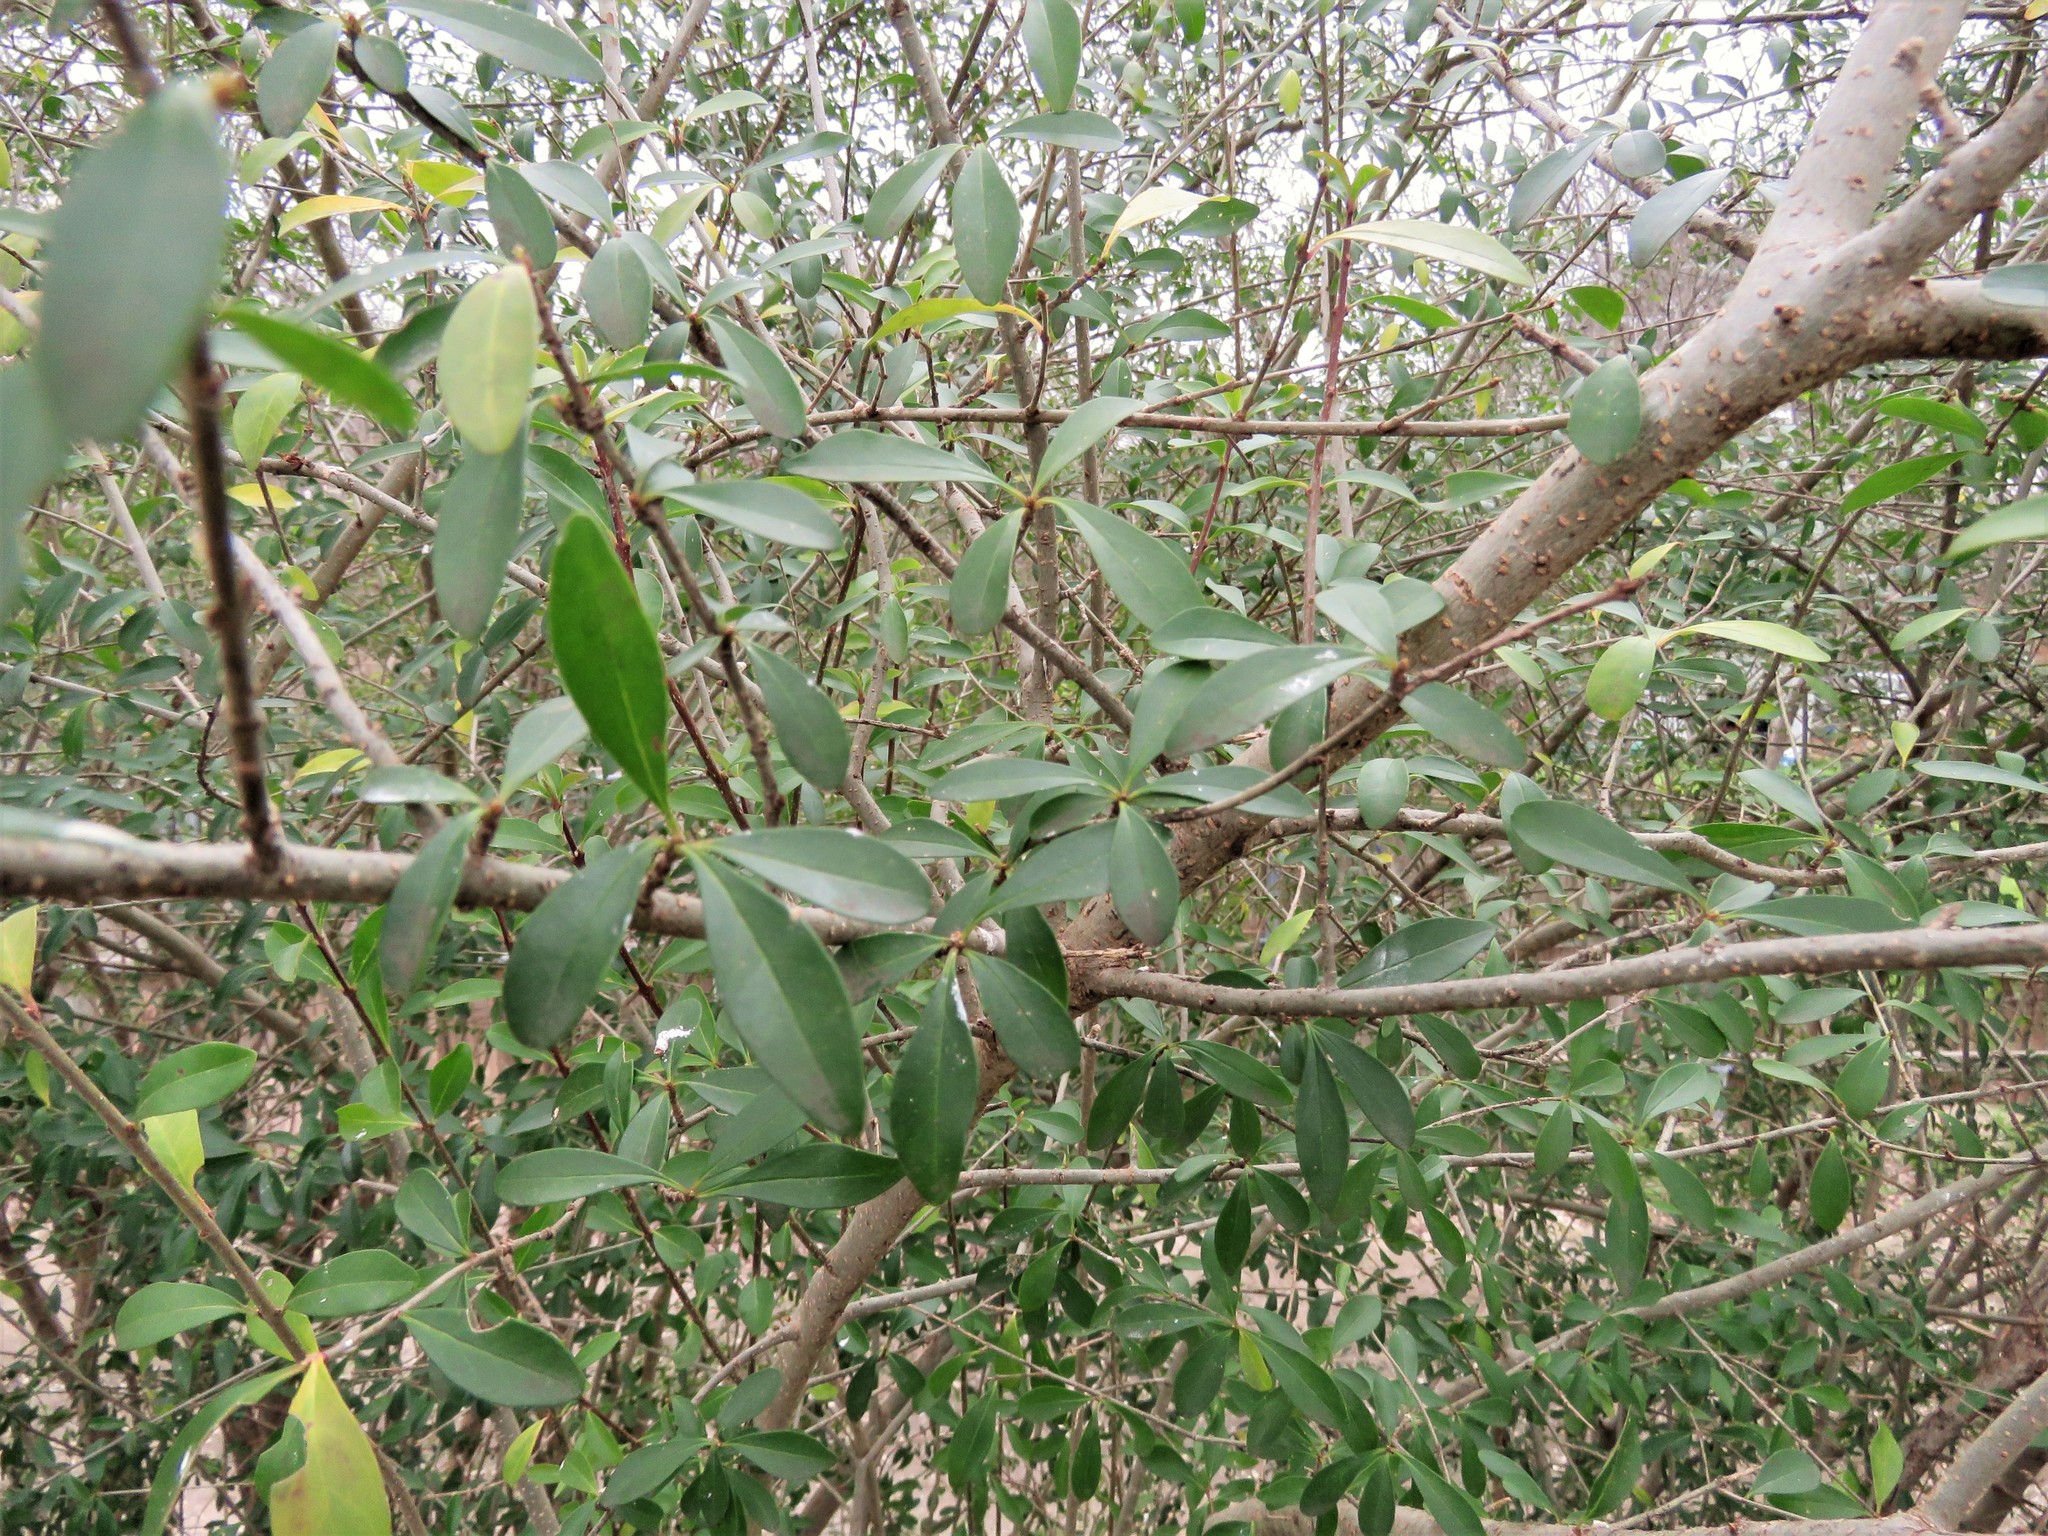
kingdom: Plantae
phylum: Tracheophyta
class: Magnoliopsida
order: Lamiales
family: Oleaceae
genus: Ligustrum
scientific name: Ligustrum quihoui
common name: Waxyleaf privet
